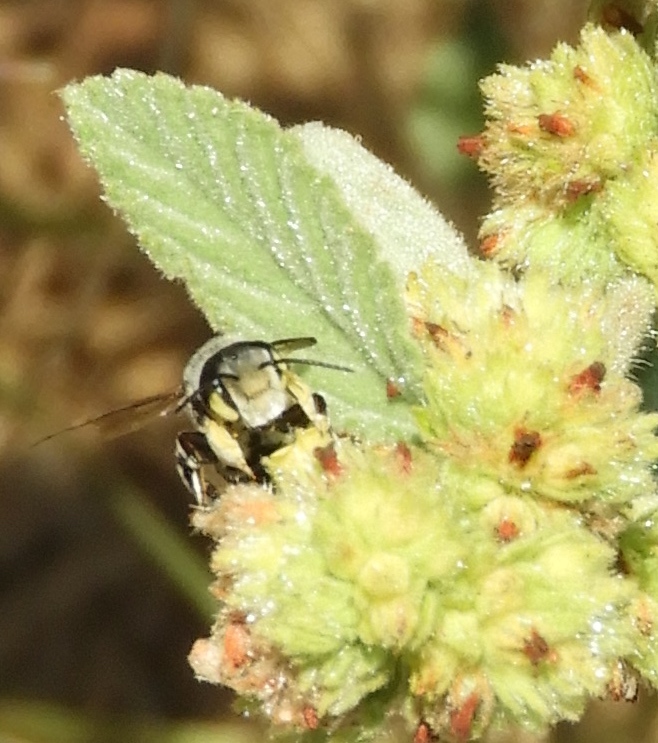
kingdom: Animalia
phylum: Arthropoda
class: Insecta
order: Hymenoptera
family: Megachilidae
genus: Megachile
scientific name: Megachile
